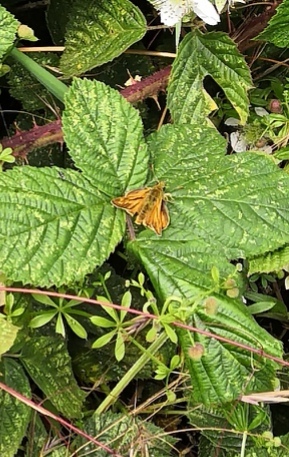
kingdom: Animalia
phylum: Arthropoda
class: Insecta
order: Lepidoptera
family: Hesperiidae
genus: Ochlodes
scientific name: Ochlodes venata
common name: Large skipper
